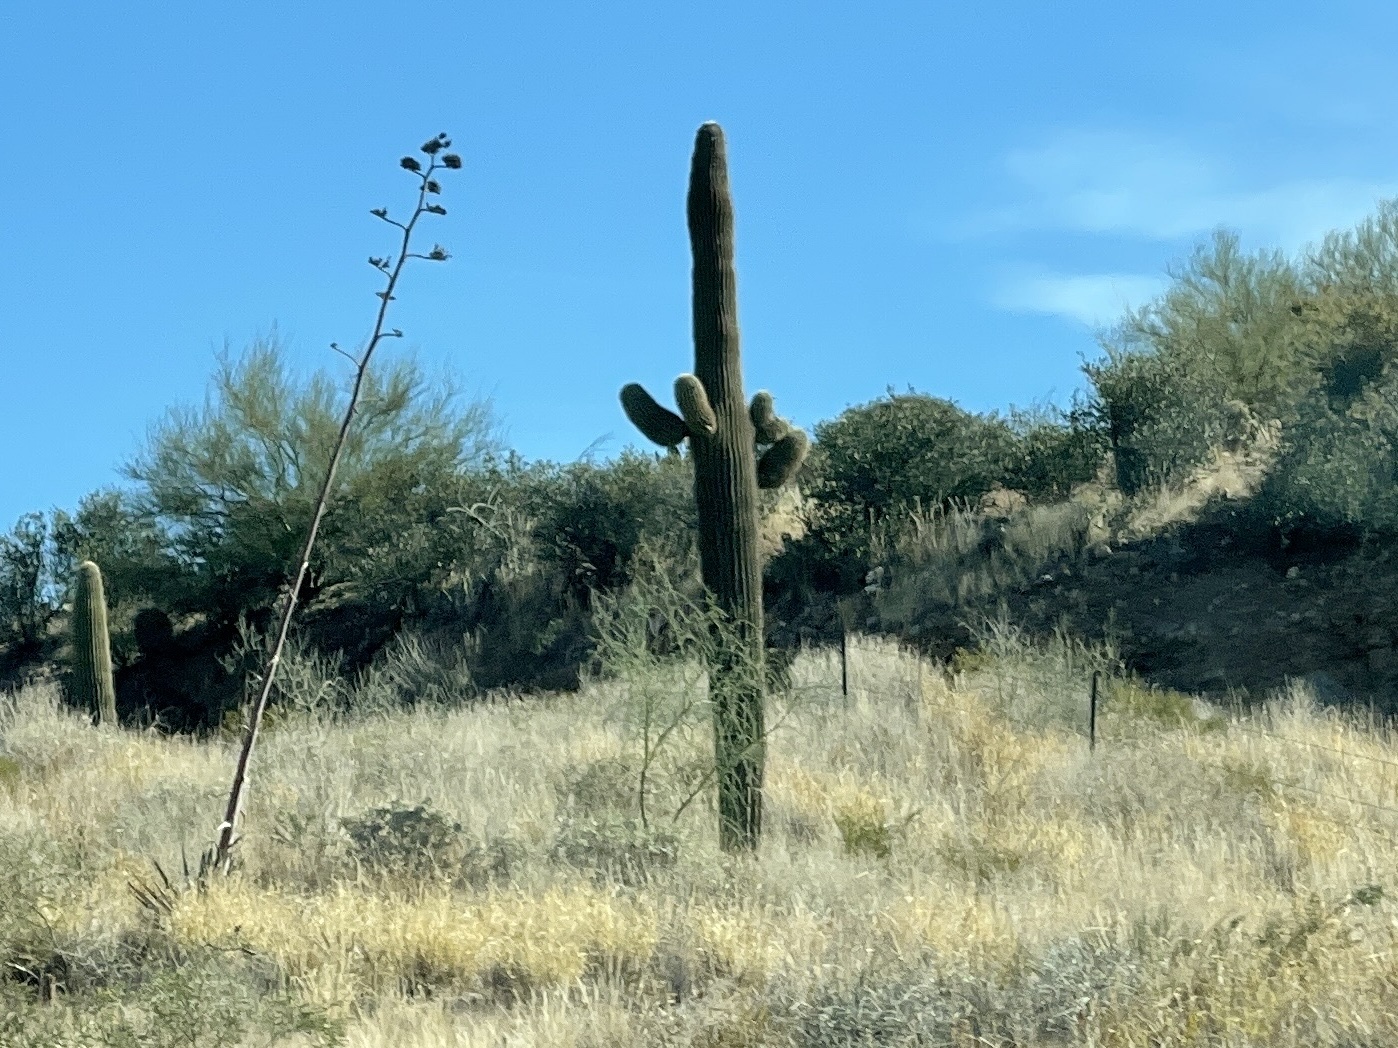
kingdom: Plantae
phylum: Tracheophyta
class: Magnoliopsida
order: Caryophyllales
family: Cactaceae
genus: Carnegiea
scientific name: Carnegiea gigantea
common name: Saguaro
